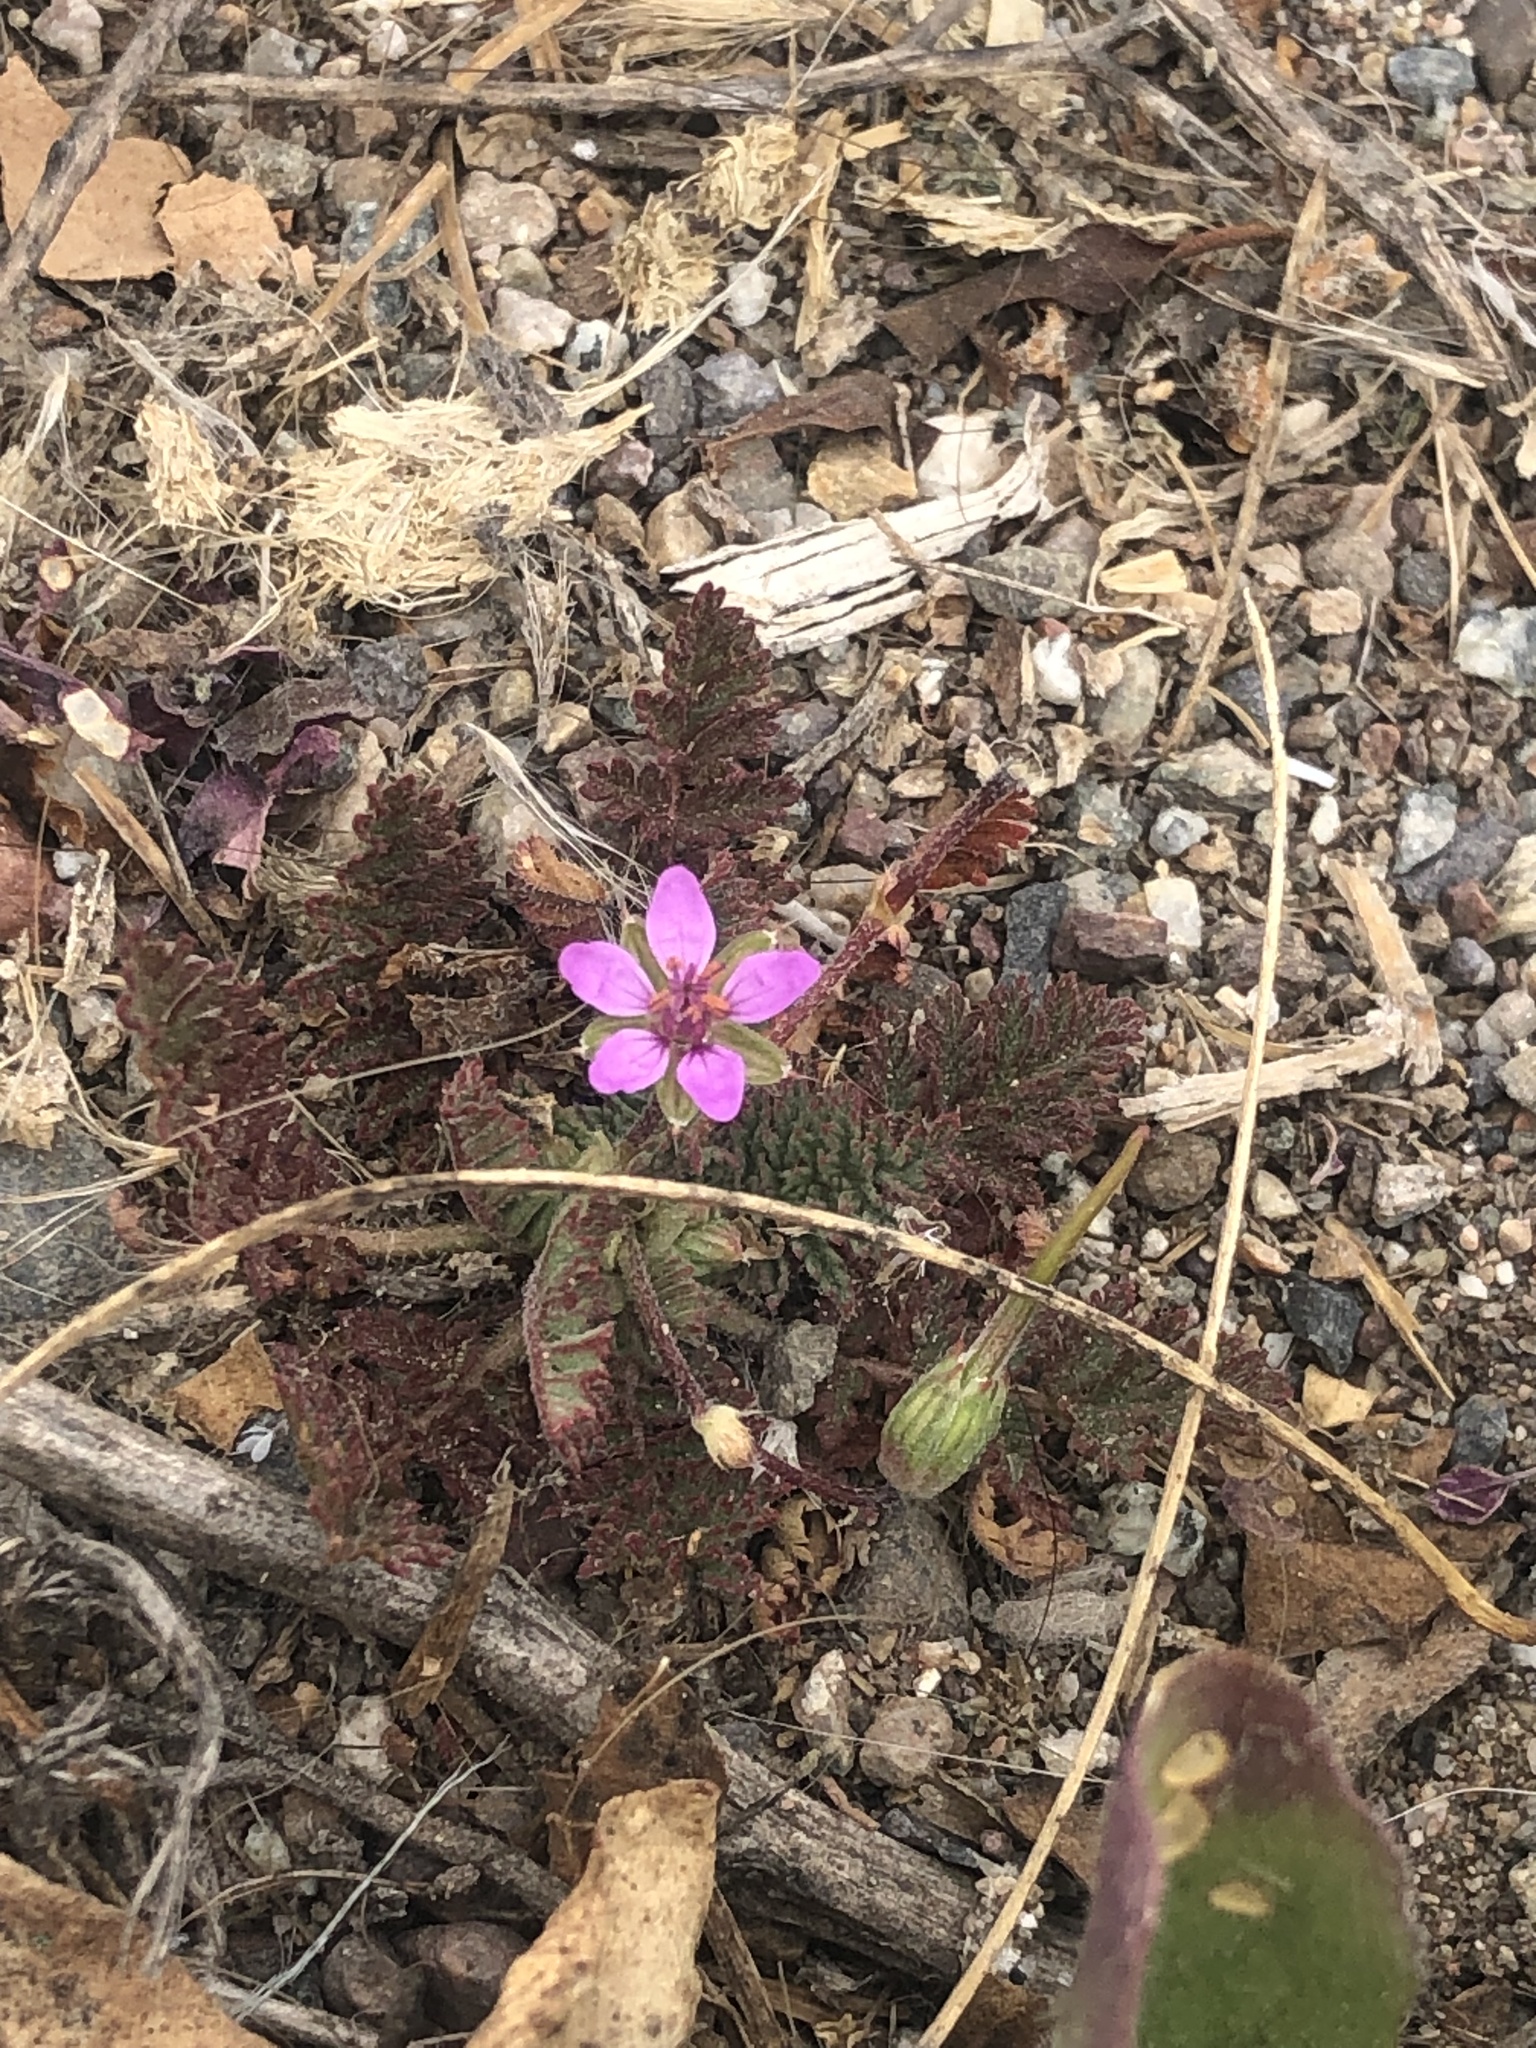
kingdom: Plantae
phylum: Tracheophyta
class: Magnoliopsida
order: Geraniales
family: Geraniaceae
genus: Erodium
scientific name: Erodium cicutarium
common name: Common stork's-bill
